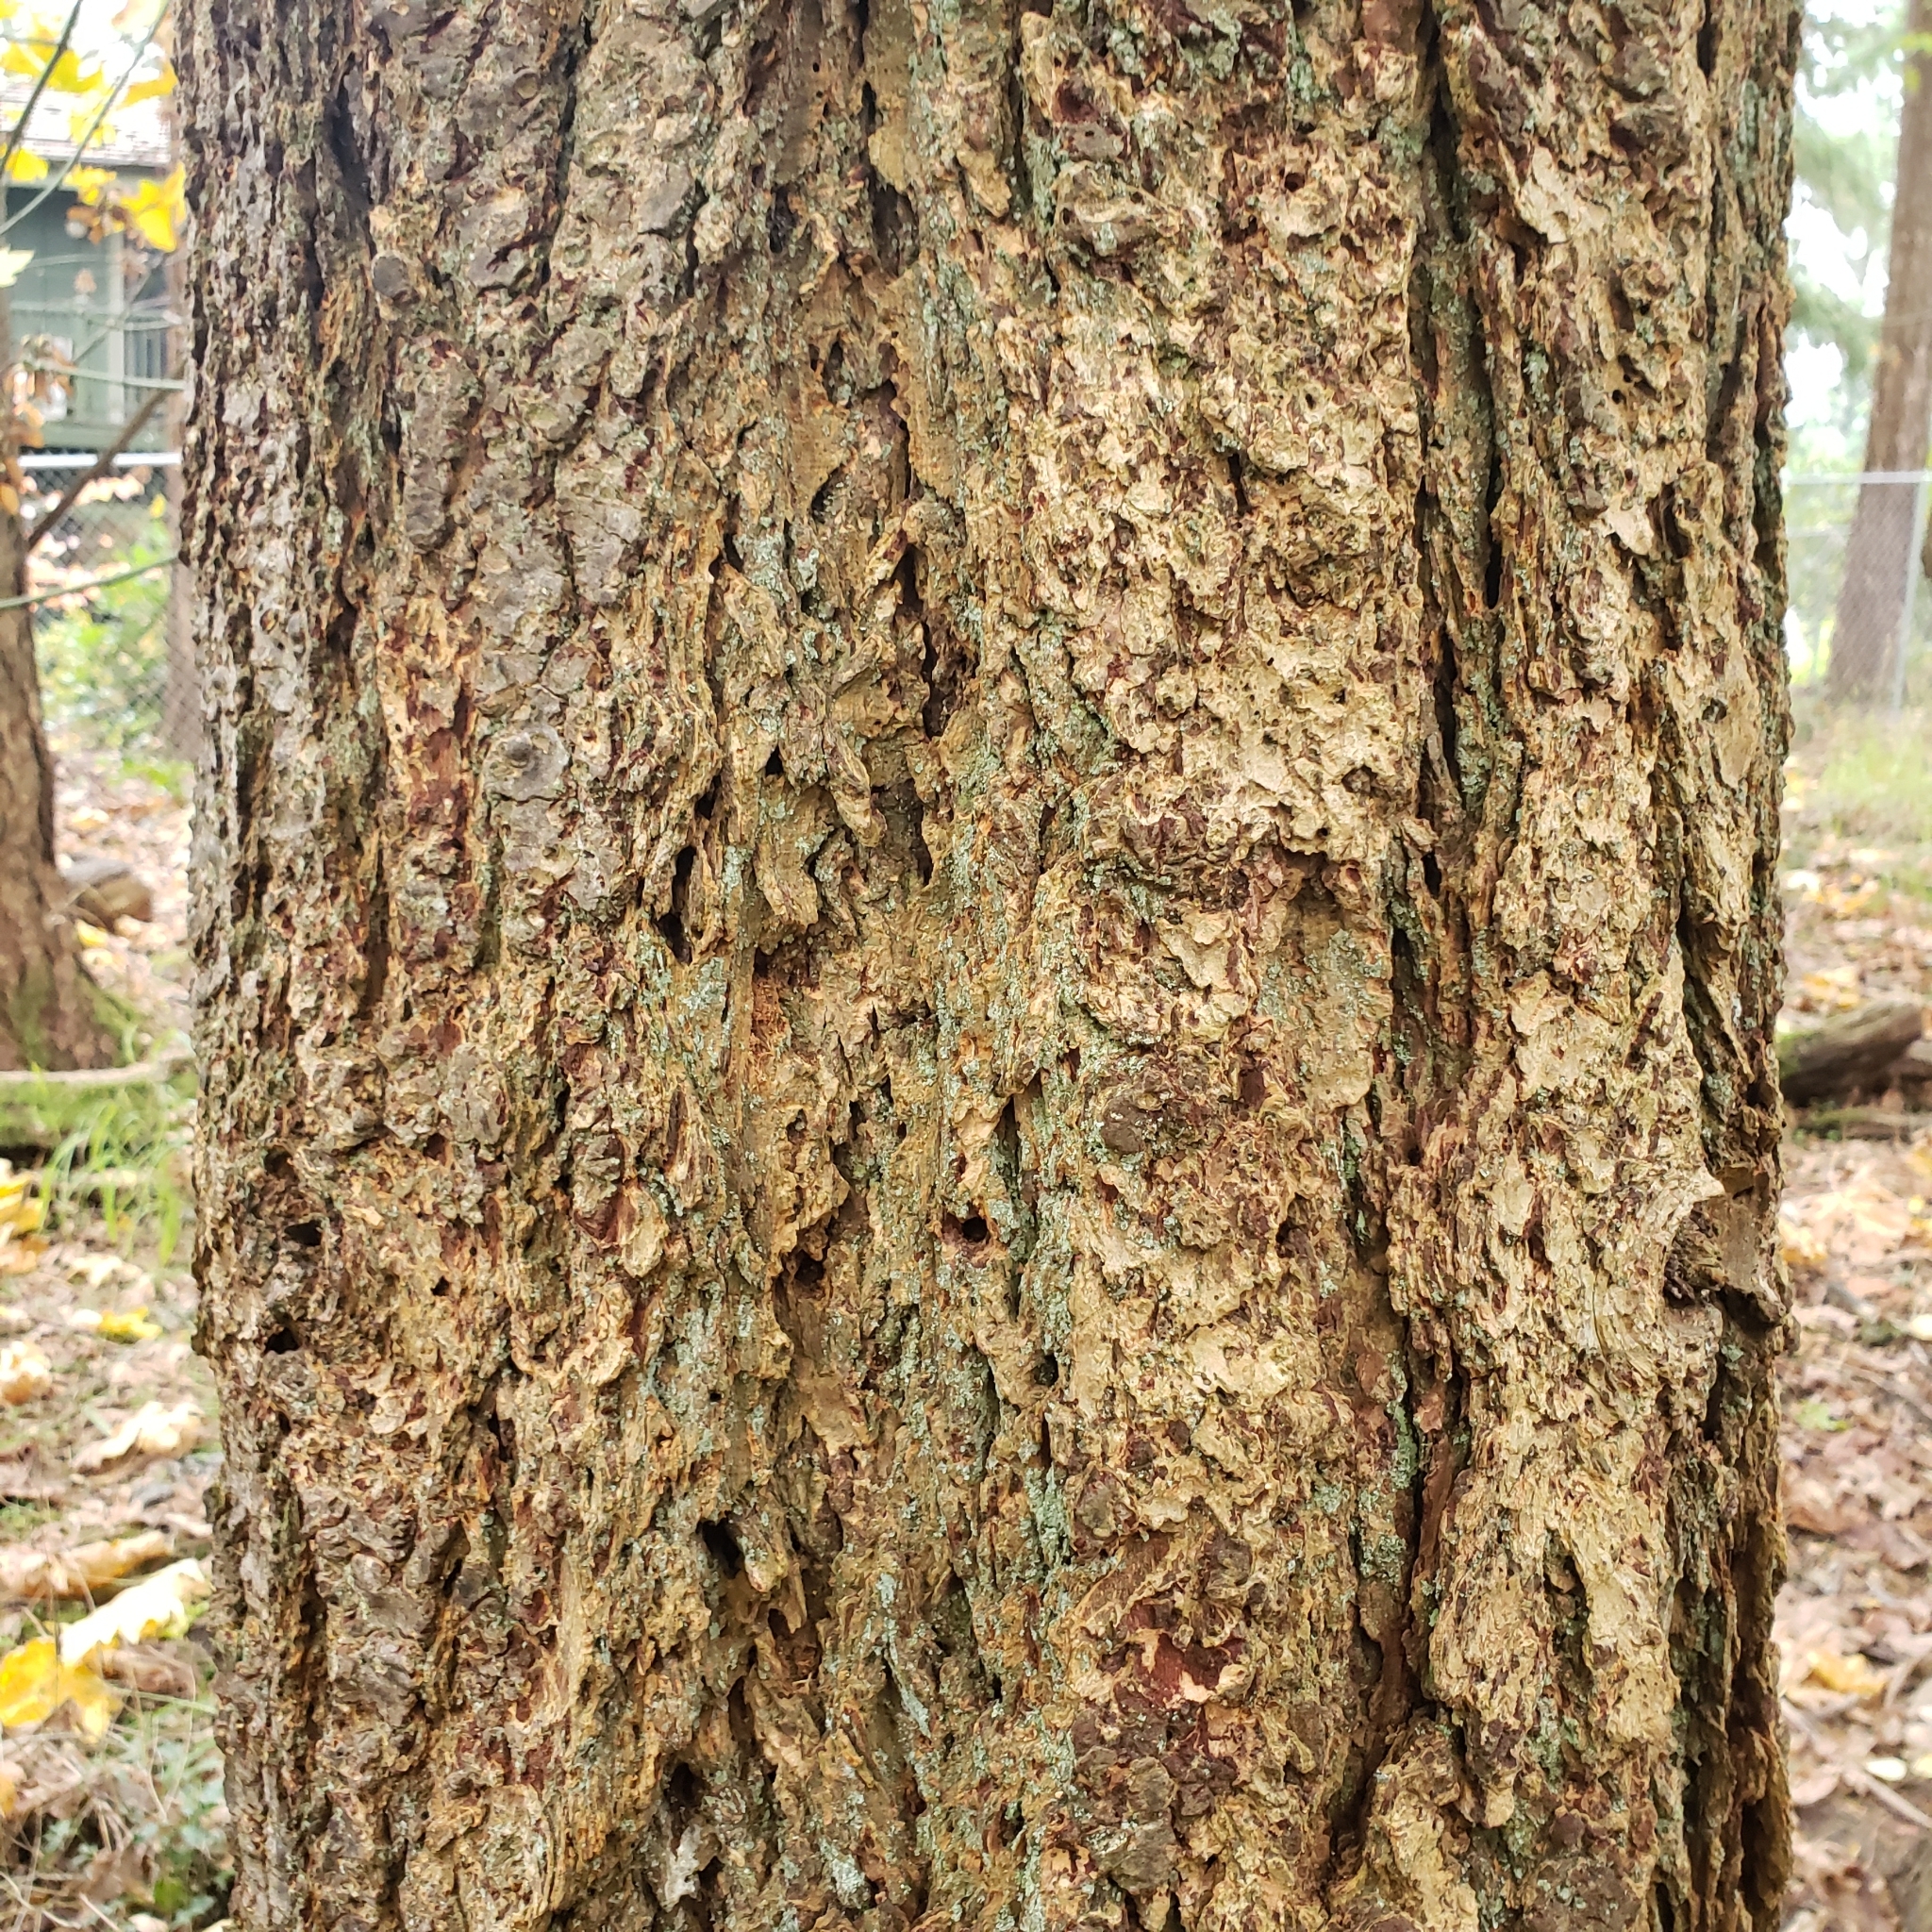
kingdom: Plantae
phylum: Tracheophyta
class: Magnoliopsida
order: Sapindales
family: Sapindaceae
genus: Acer
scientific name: Acer macrophyllum
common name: Oregon maple
